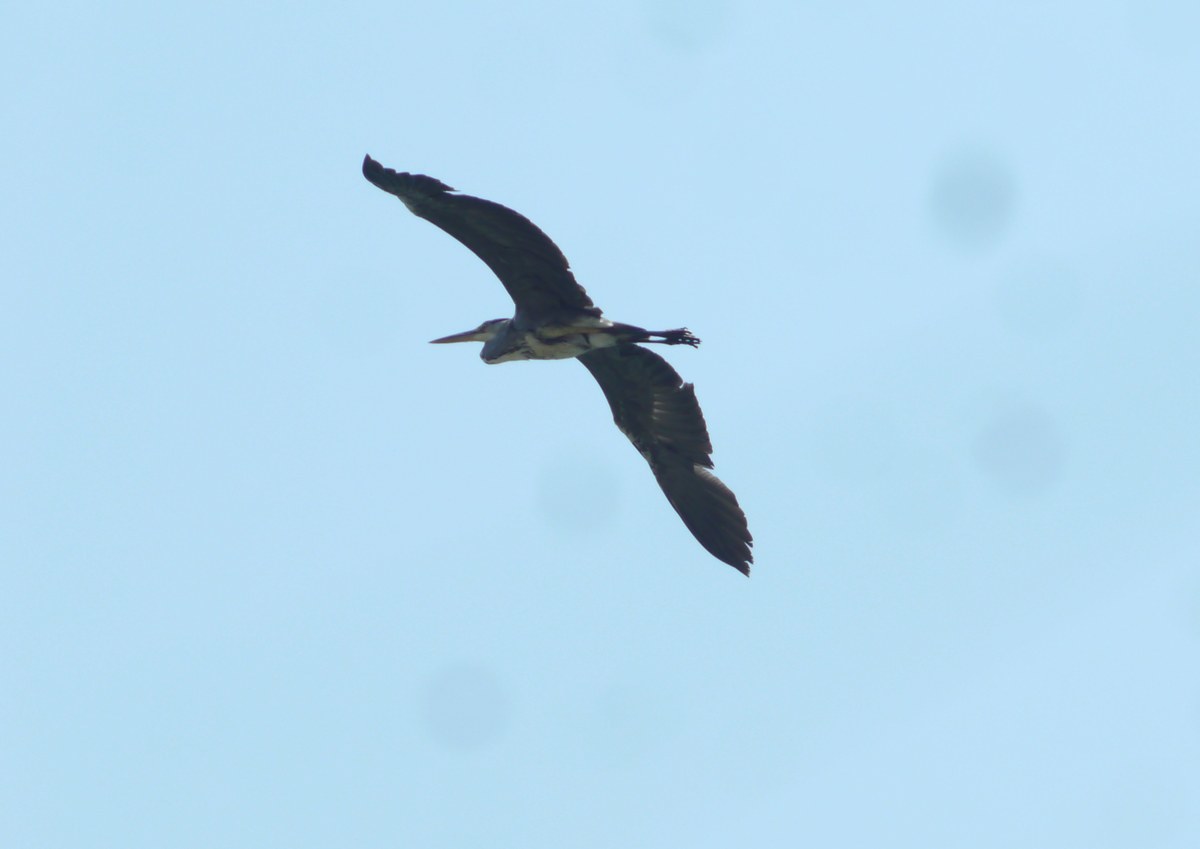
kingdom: Animalia
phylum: Chordata
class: Aves
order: Pelecaniformes
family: Ardeidae
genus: Ardea
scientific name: Ardea cinerea
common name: Grey heron
